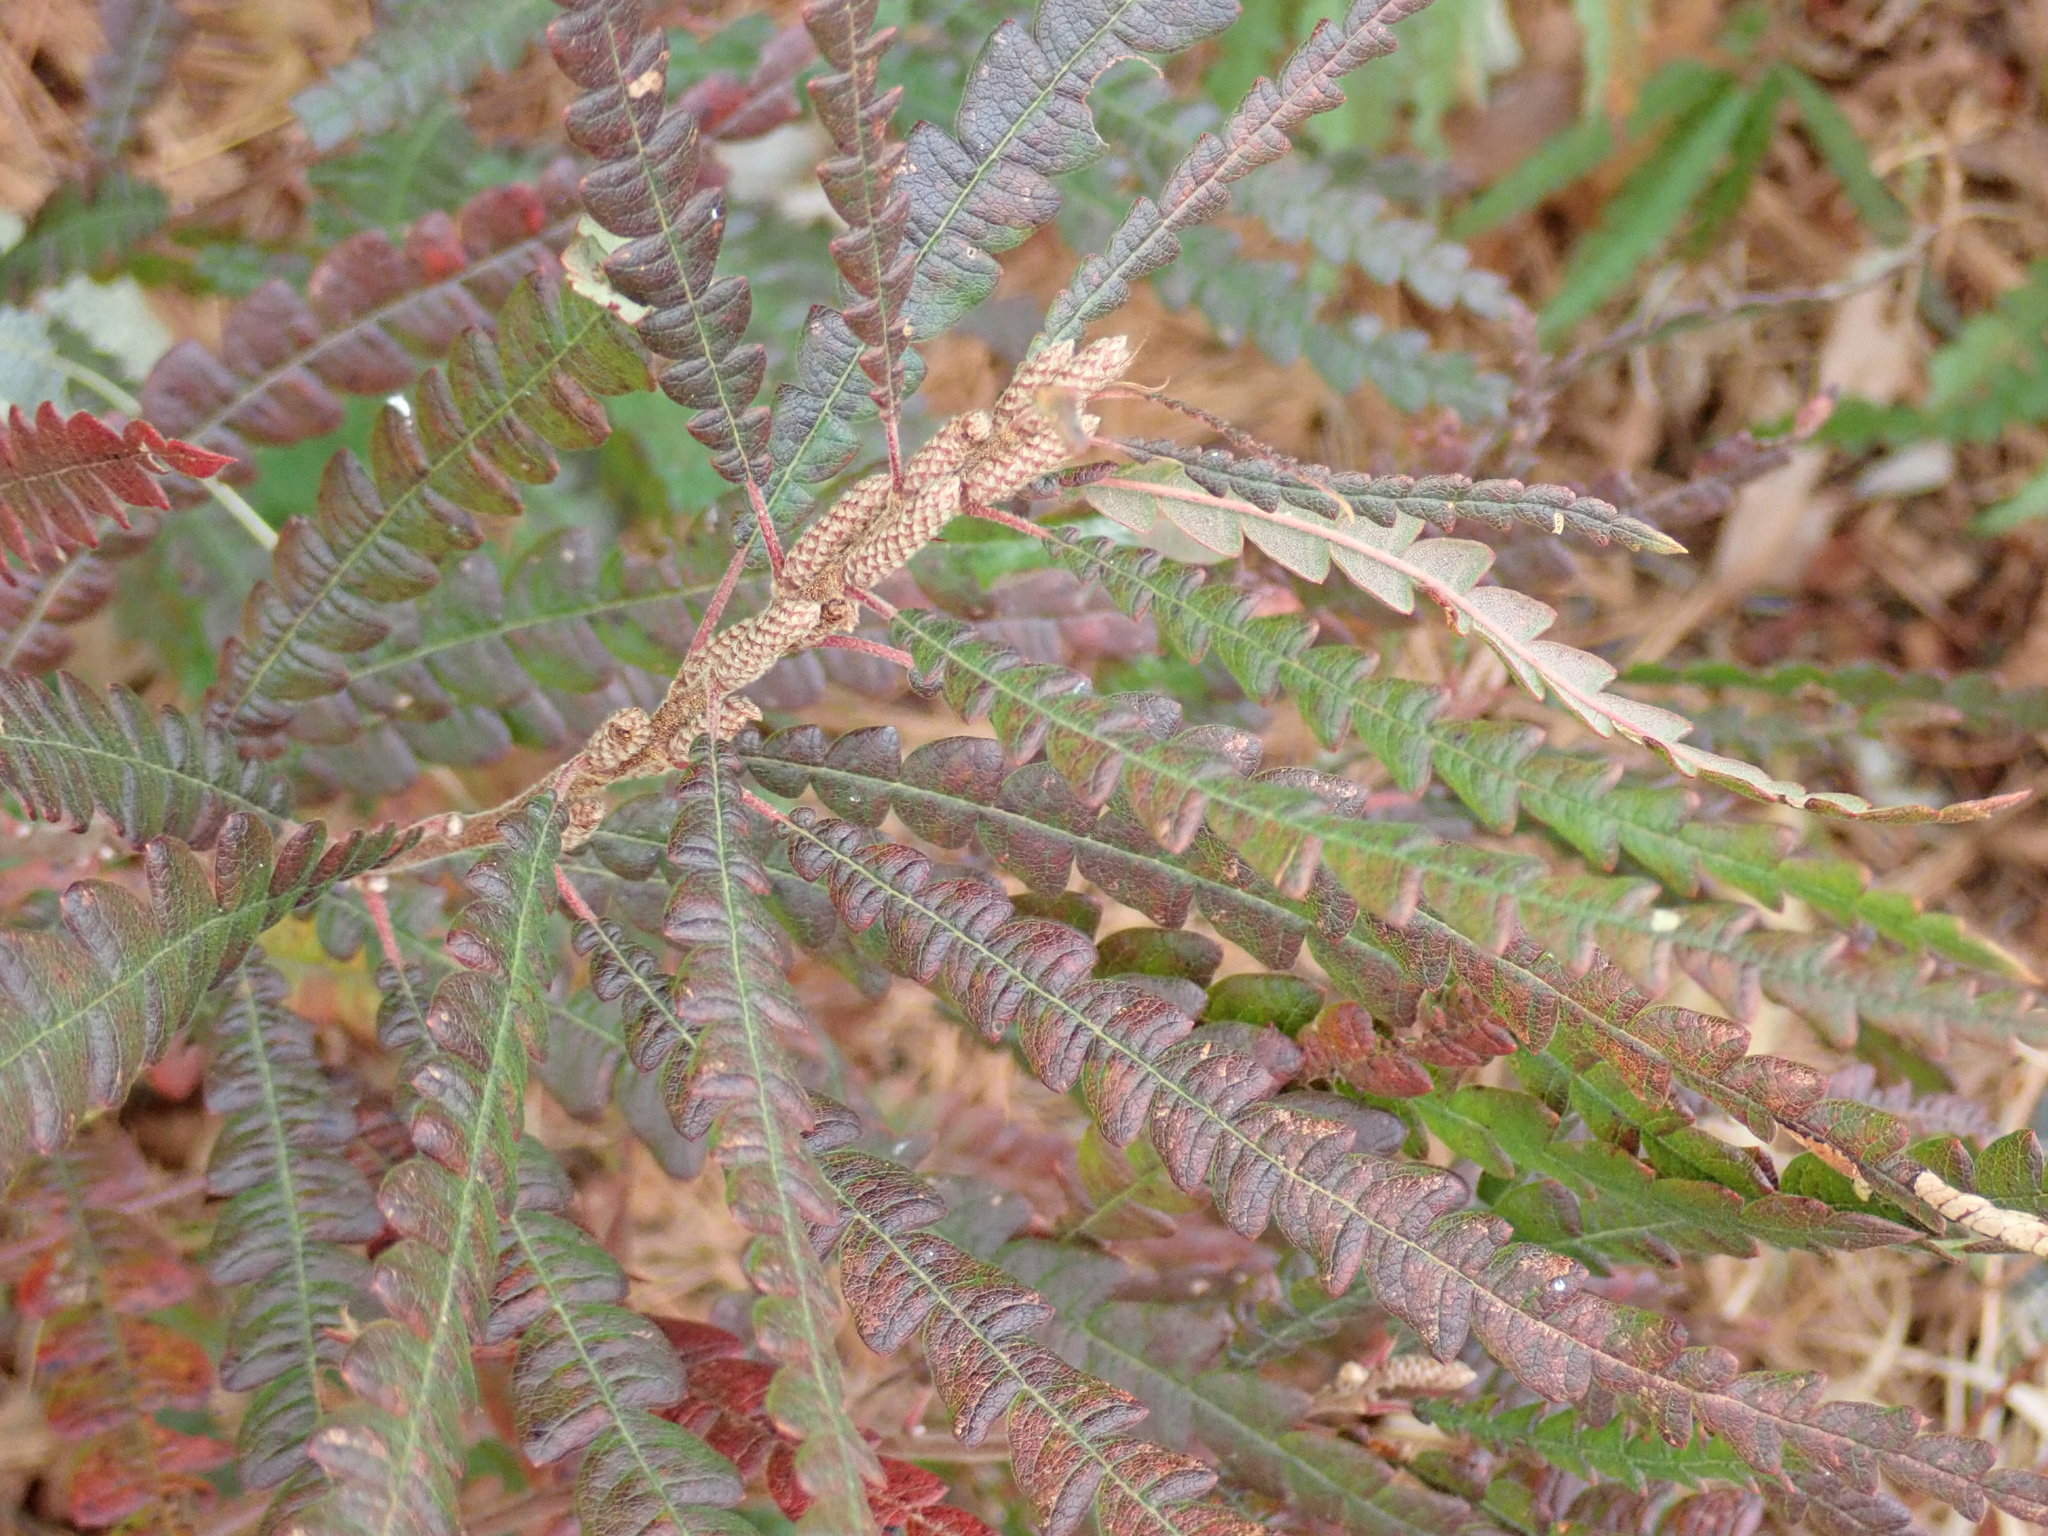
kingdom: Plantae
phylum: Tracheophyta
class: Magnoliopsida
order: Fagales
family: Myricaceae
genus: Comptonia
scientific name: Comptonia peregrina
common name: Sweet-fern
